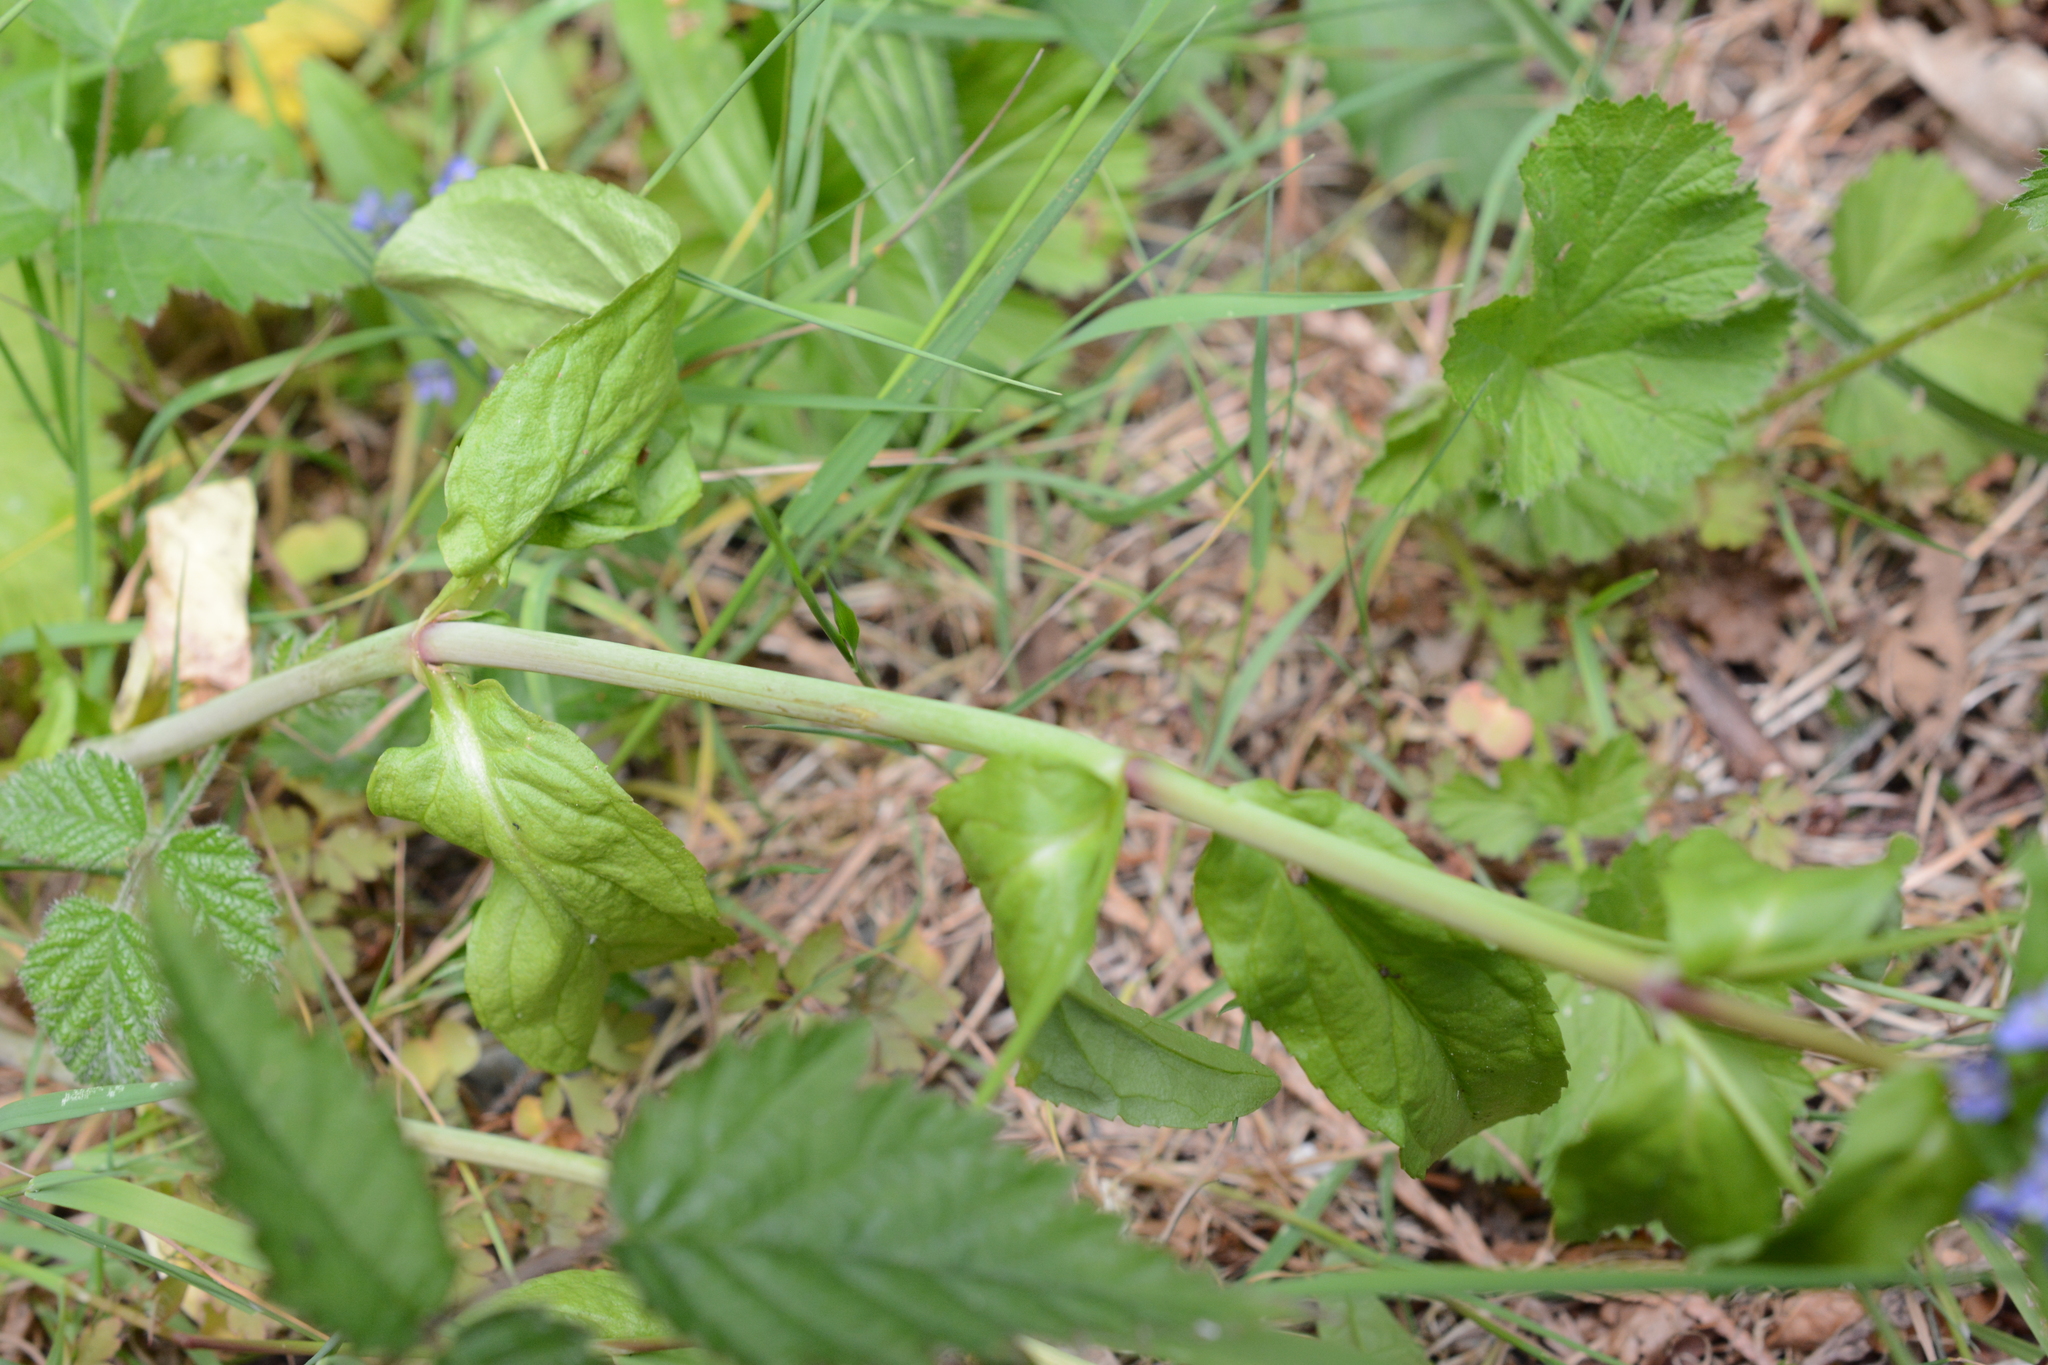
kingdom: Plantae
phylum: Tracheophyta
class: Magnoliopsida
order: Lamiales
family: Plantaginaceae
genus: Veronica
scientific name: Veronica americana
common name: American brooklime
